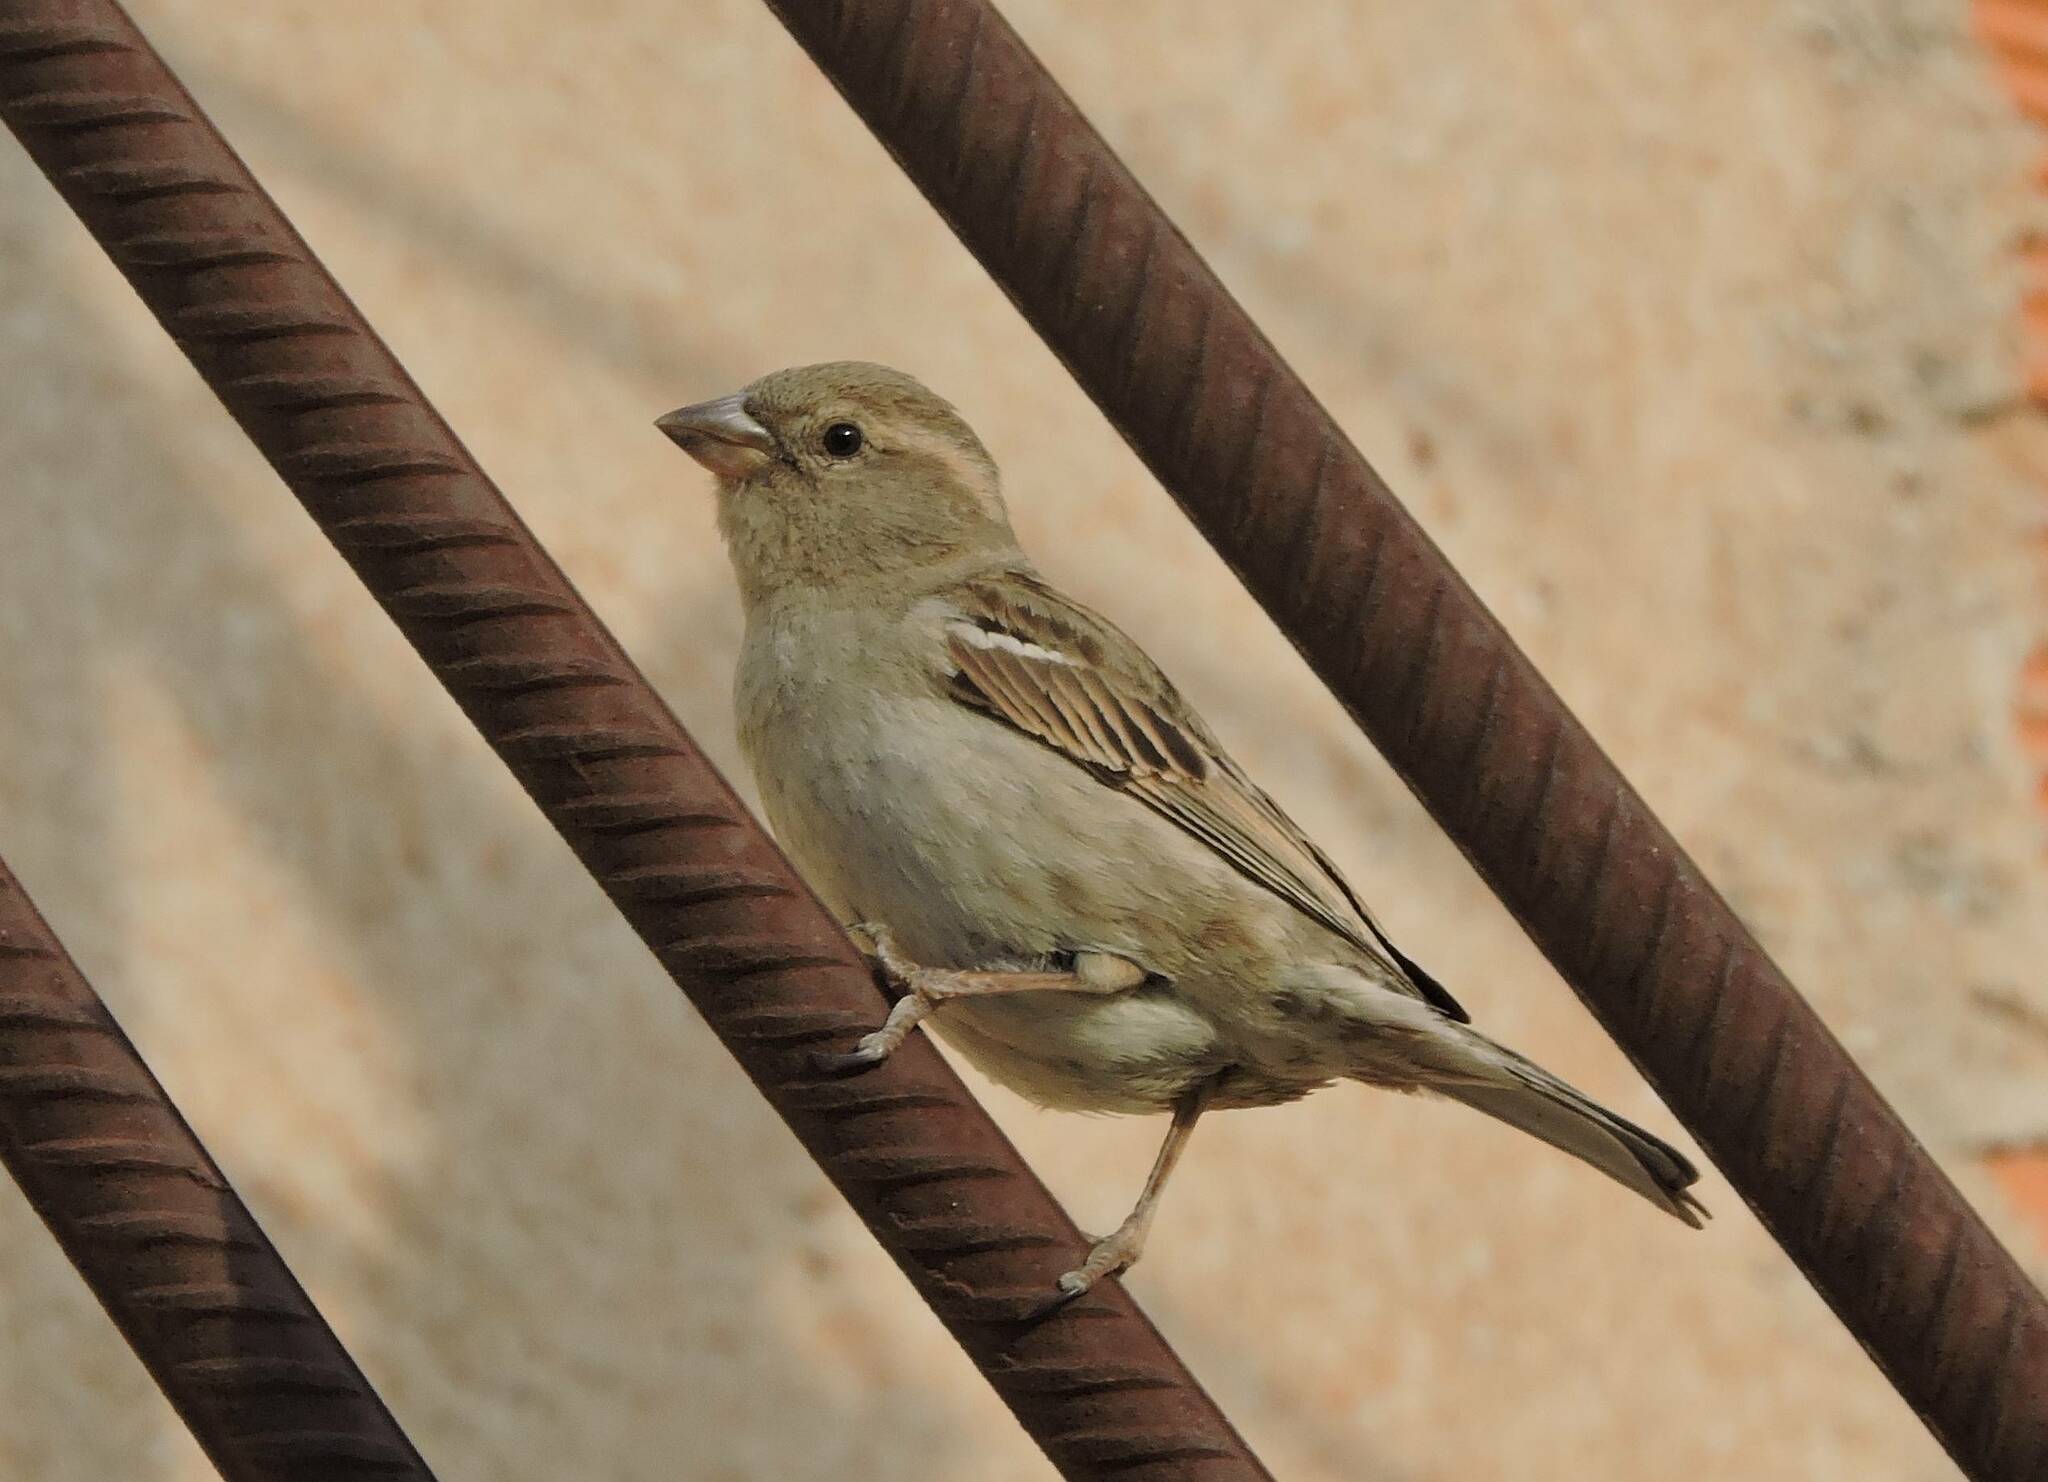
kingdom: Animalia
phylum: Chordata
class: Aves
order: Passeriformes
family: Passeridae
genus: Passer
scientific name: Passer domesticus
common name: House sparrow
